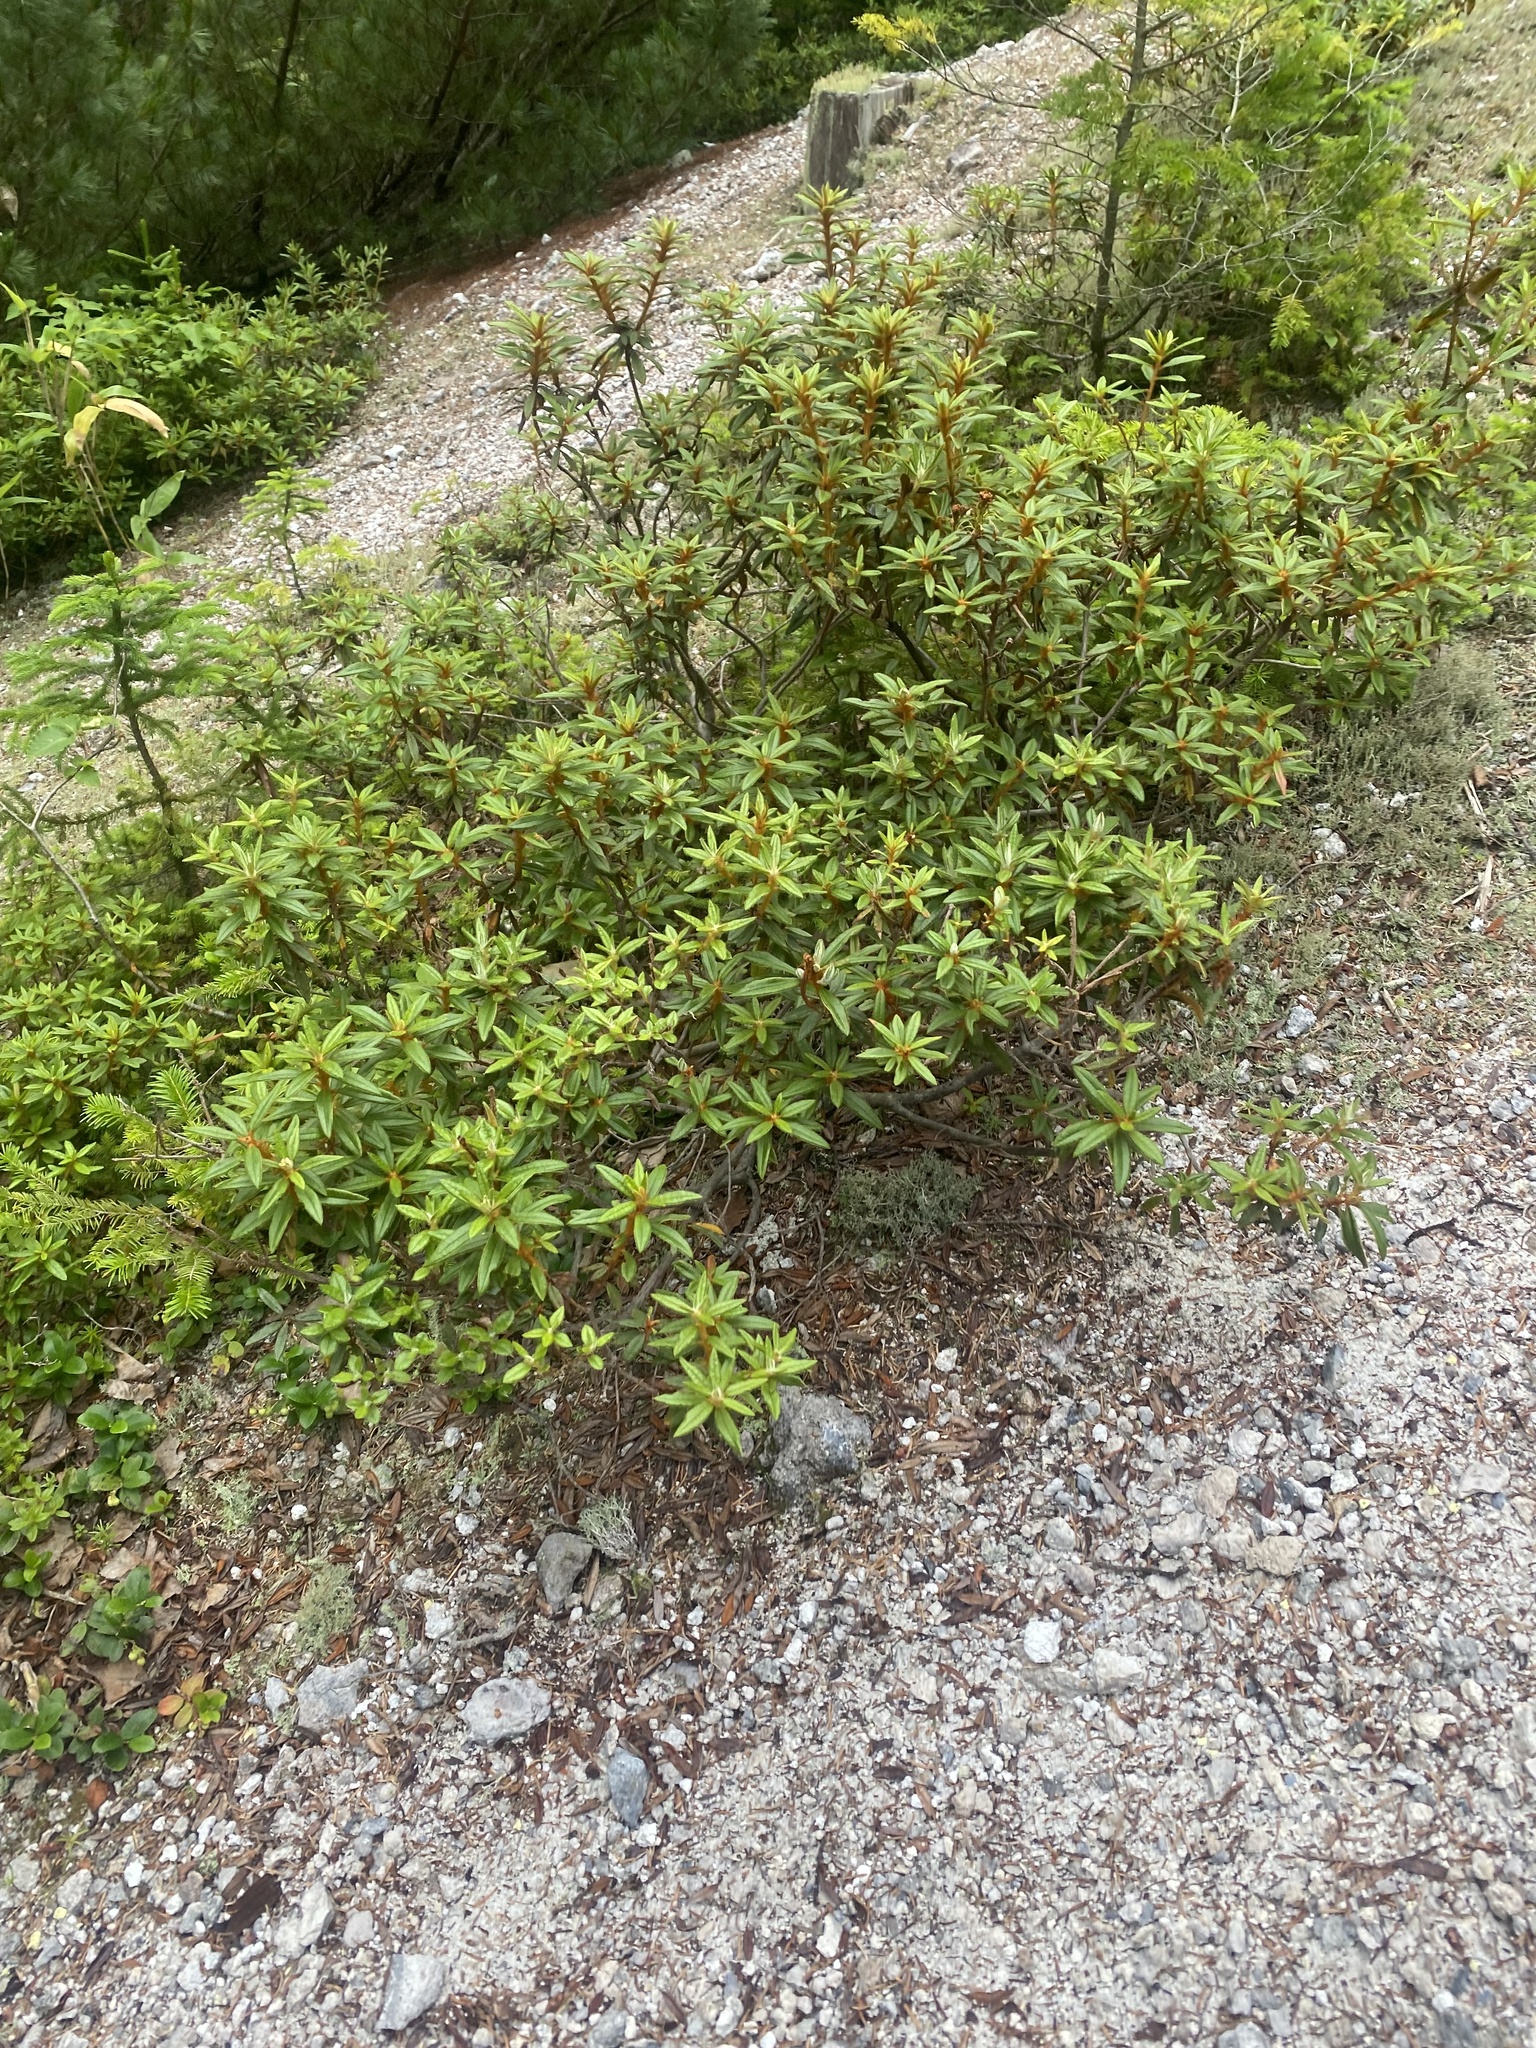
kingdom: Plantae
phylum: Tracheophyta
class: Magnoliopsida
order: Ericales
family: Ericaceae
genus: Rhododendron
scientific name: Rhododendron tomentosum
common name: Marsh labrador tea
